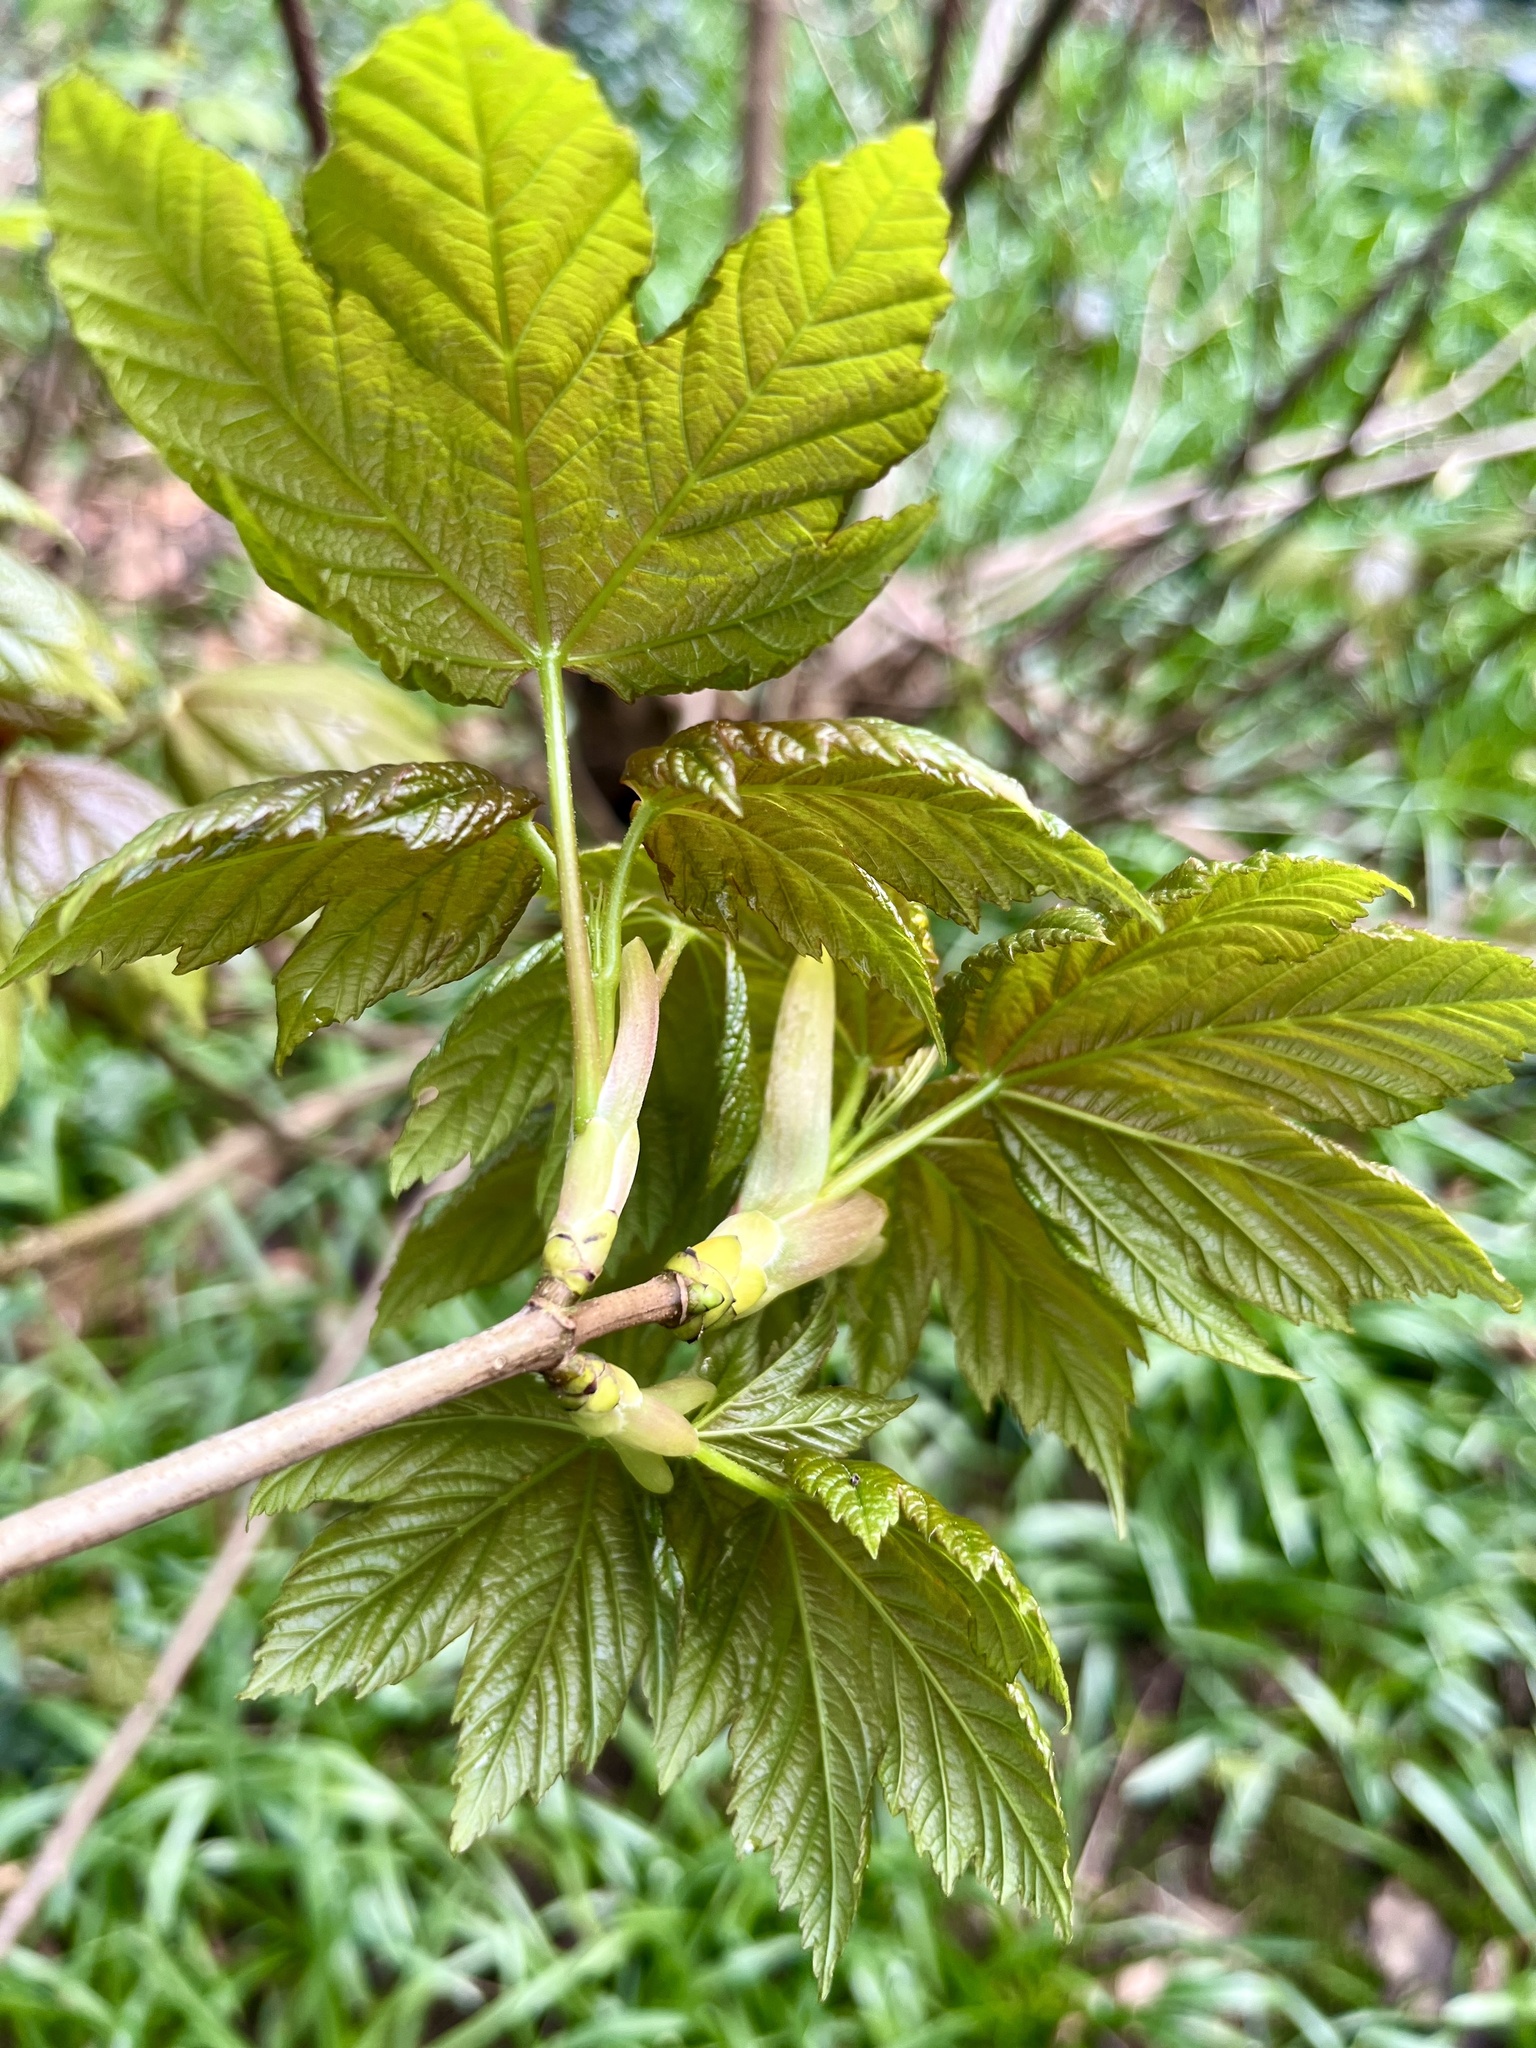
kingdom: Plantae
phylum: Tracheophyta
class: Magnoliopsida
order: Sapindales
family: Sapindaceae
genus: Acer
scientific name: Acer pseudoplatanus
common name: Sycamore
